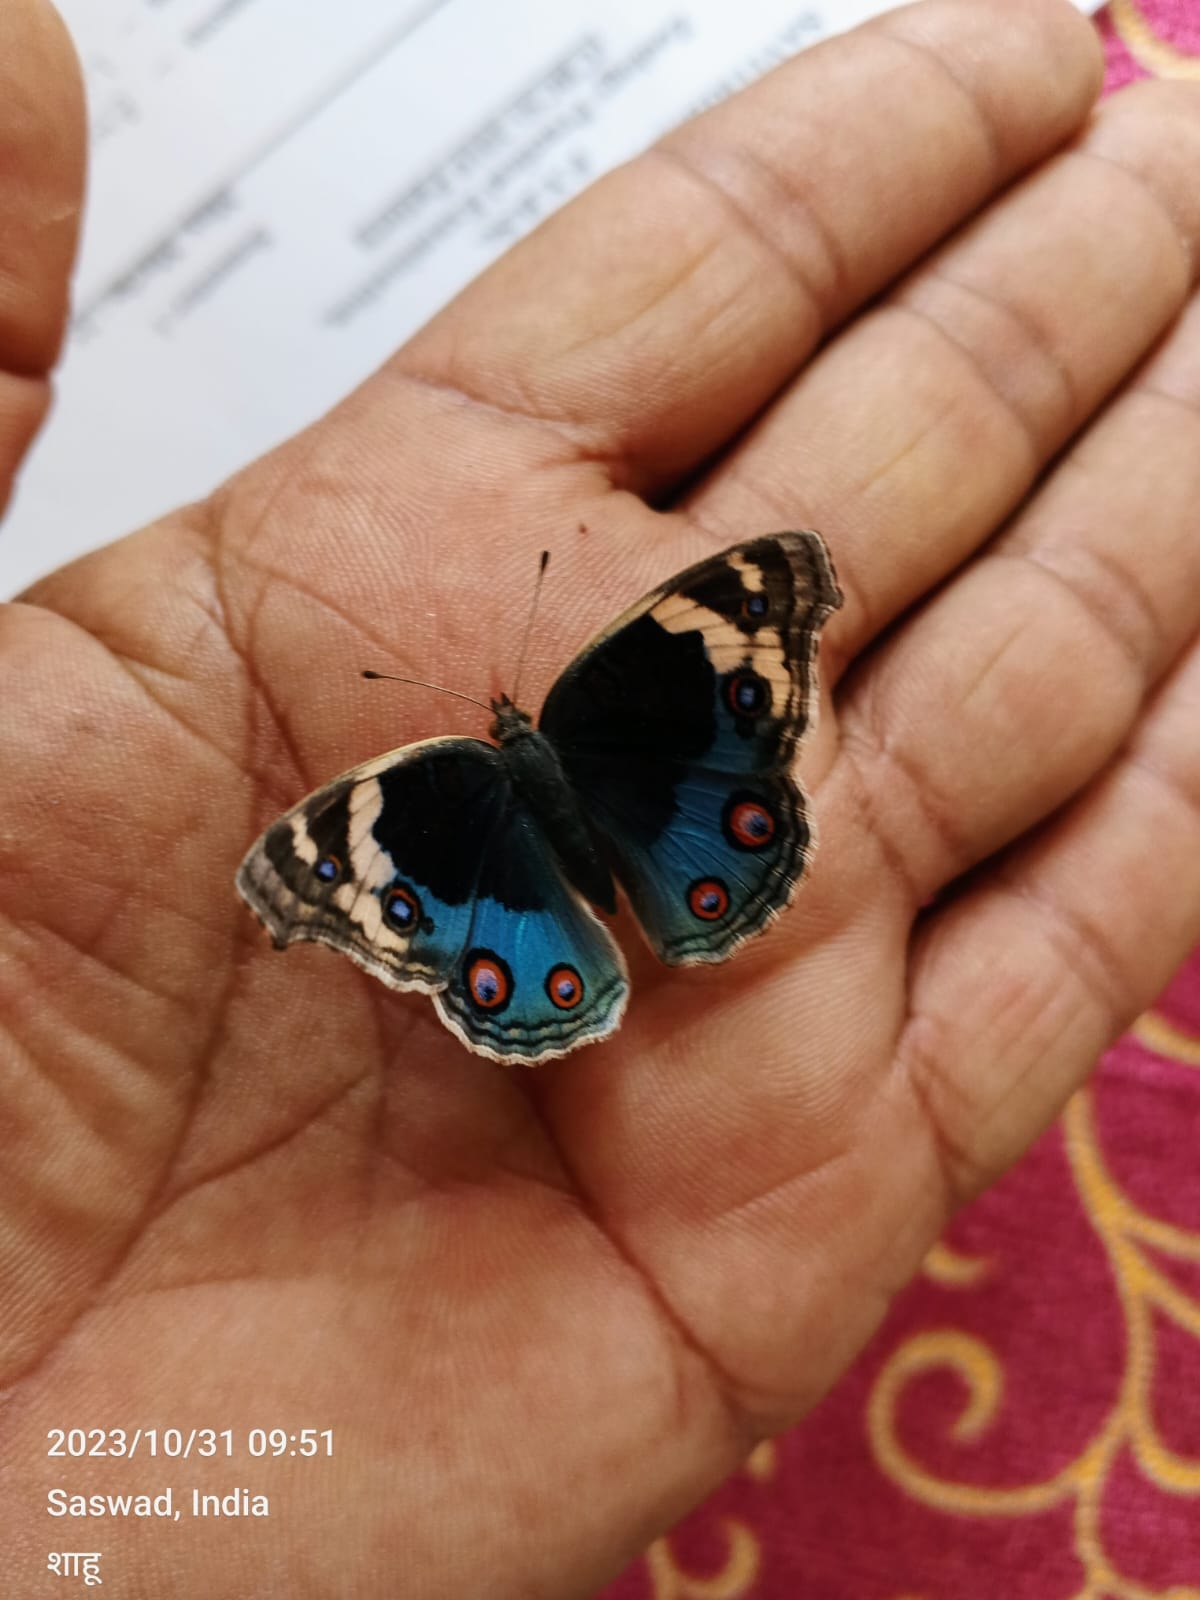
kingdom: Animalia
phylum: Arthropoda
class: Insecta
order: Lepidoptera
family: Nymphalidae
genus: Junonia
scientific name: Junonia orithya
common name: Blue pansy
